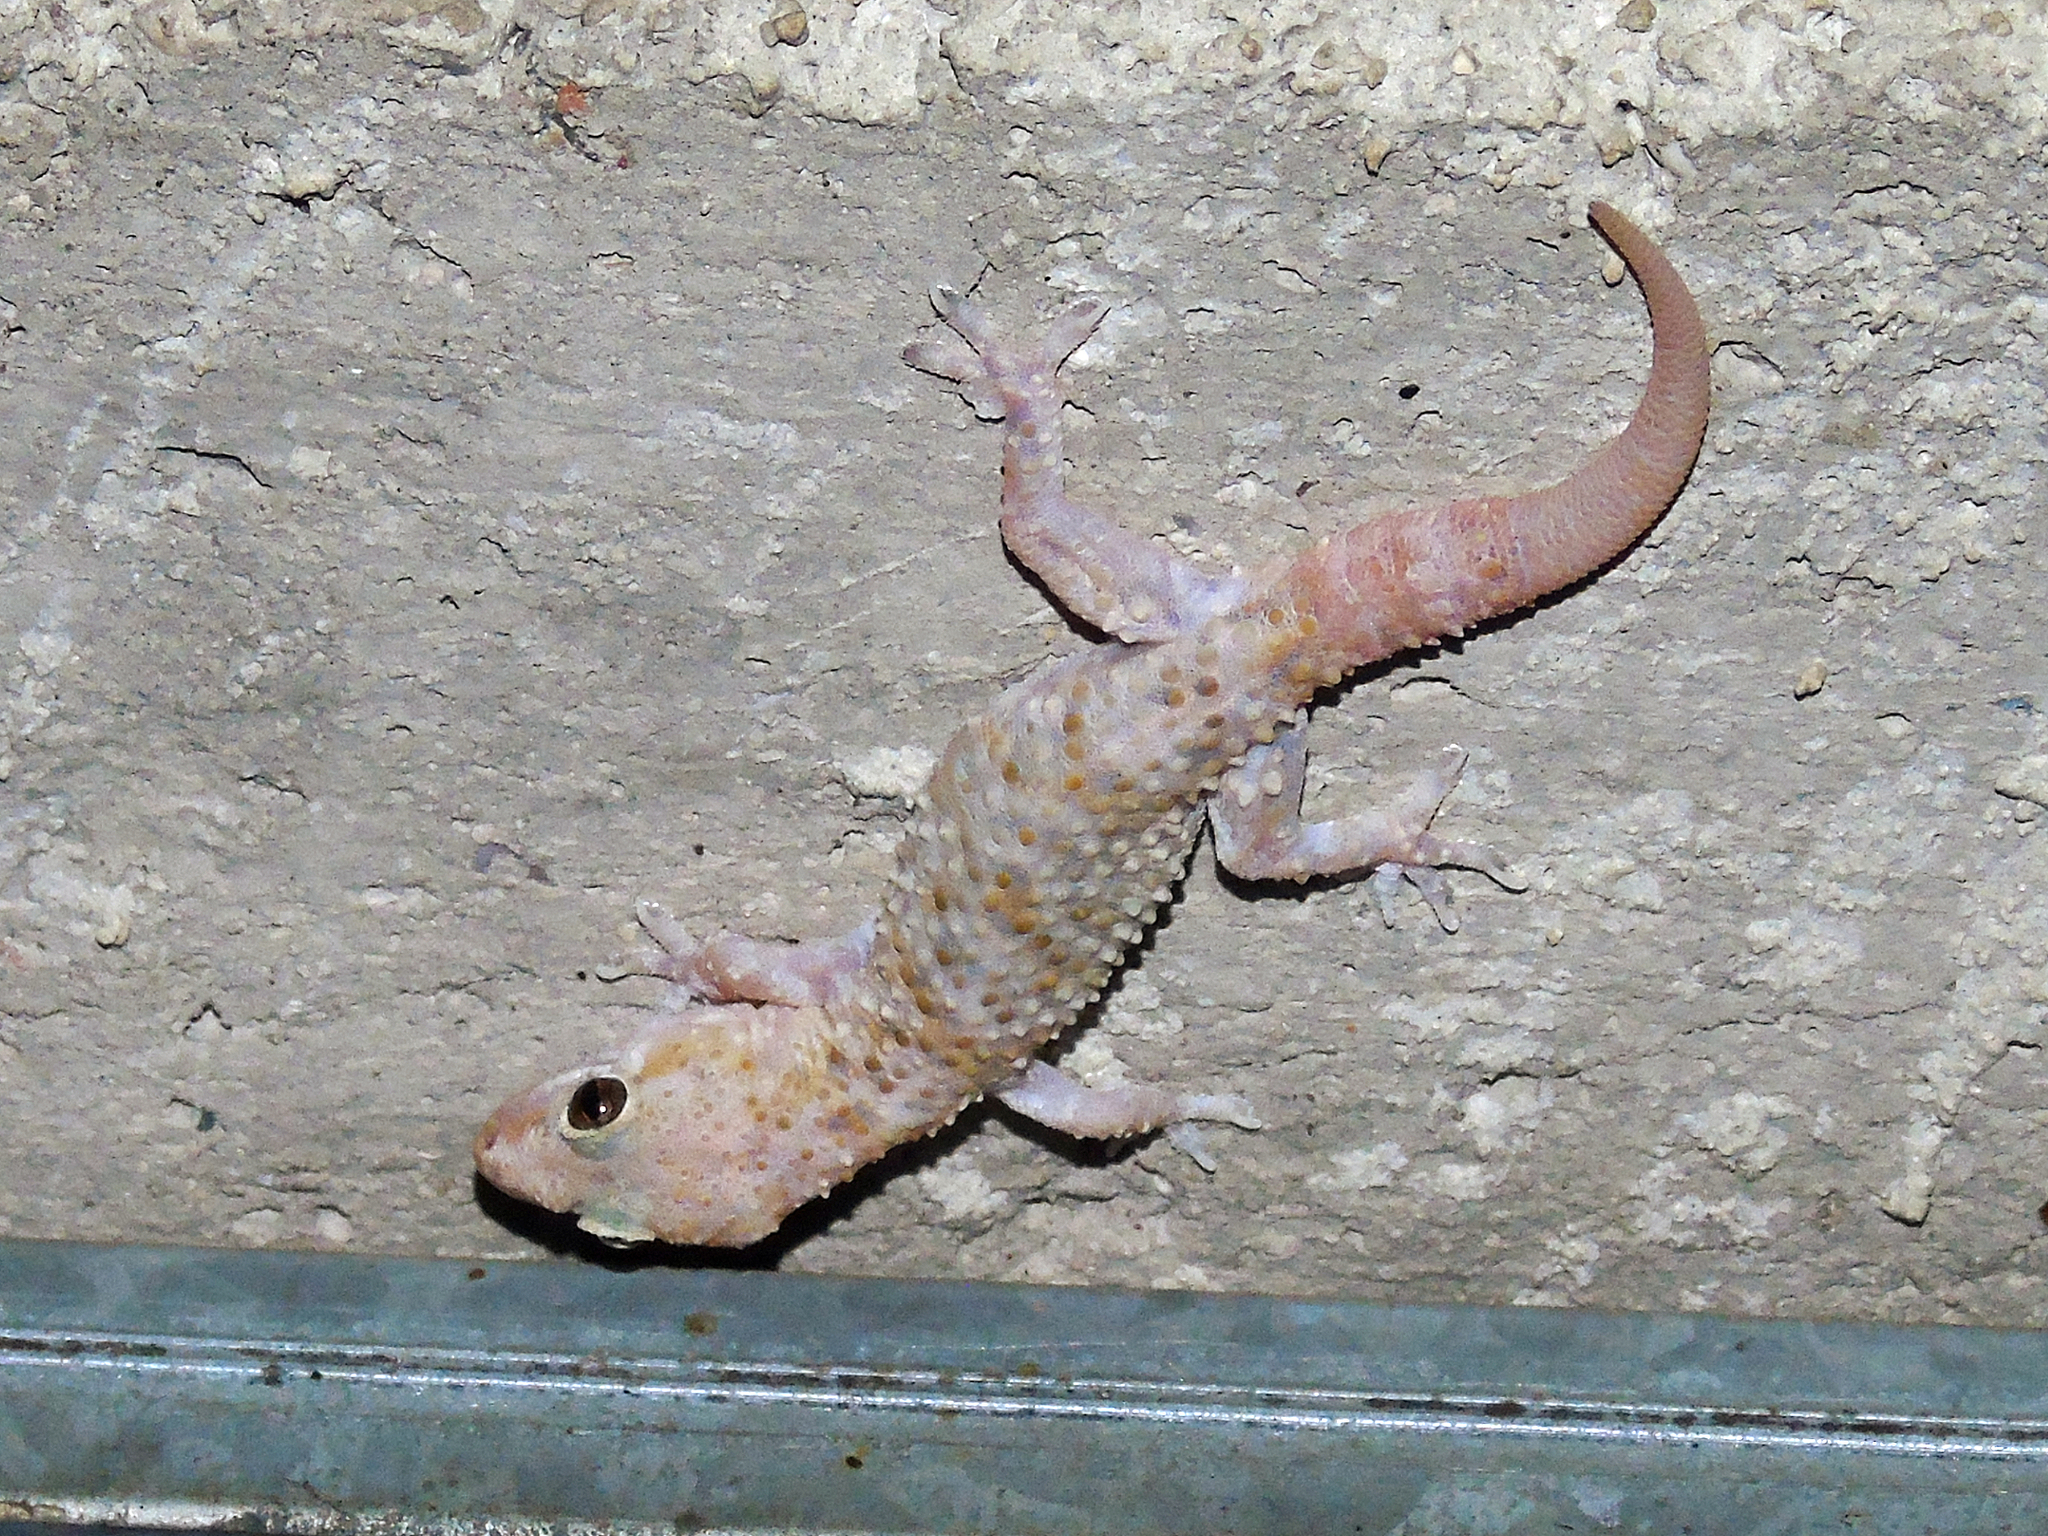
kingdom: Animalia
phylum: Chordata
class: Squamata
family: Gekkonidae
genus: Hemidactylus
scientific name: Hemidactylus turcicus
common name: Turkish gecko
